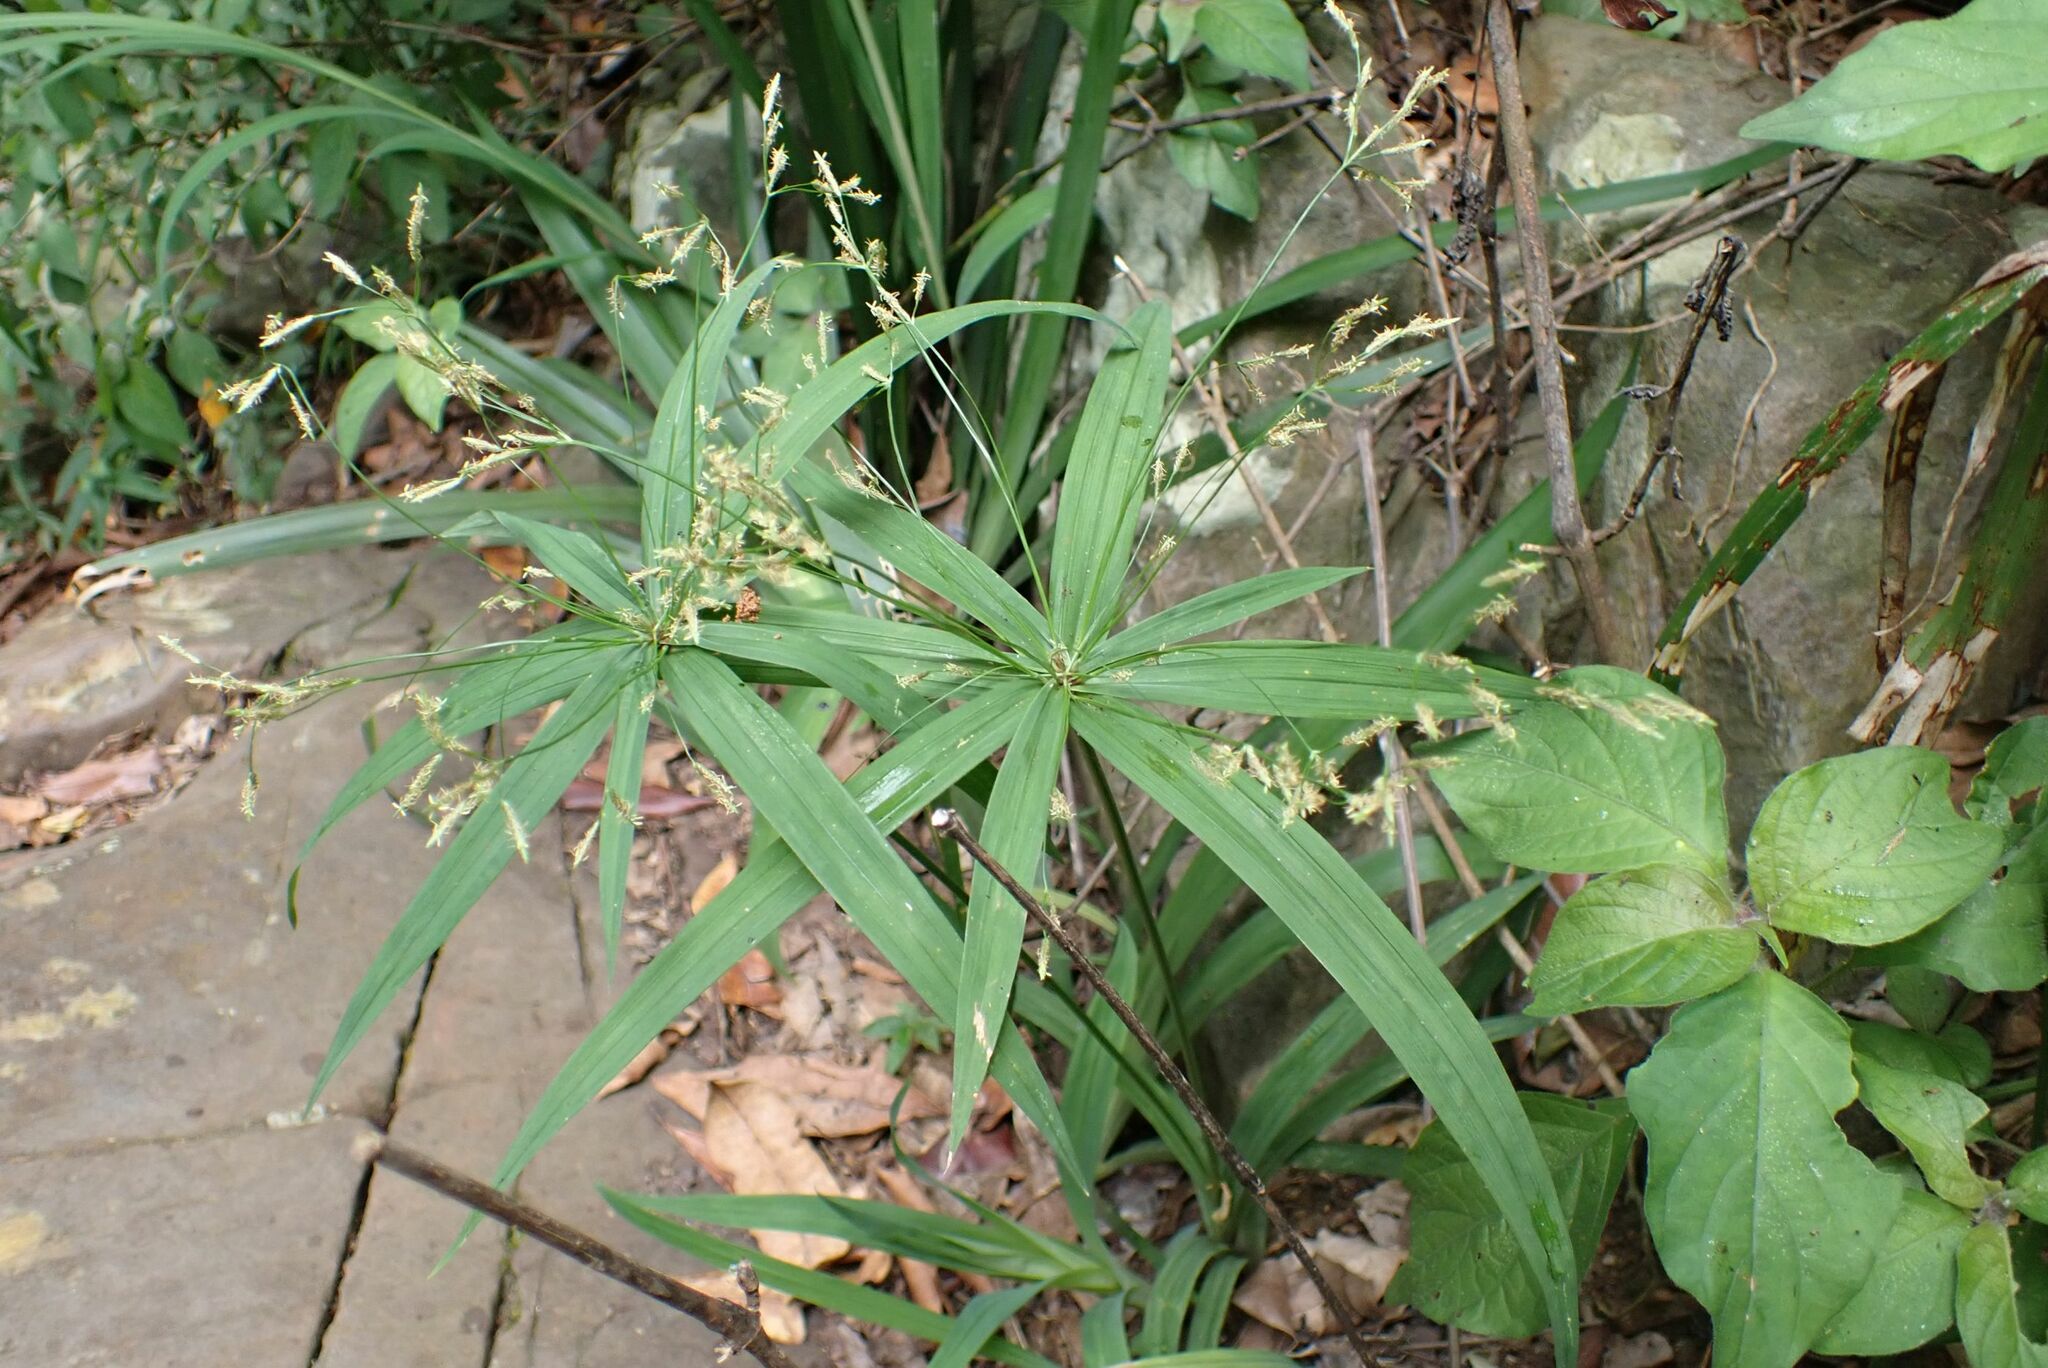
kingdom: Plantae
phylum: Tracheophyta
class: Liliopsida
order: Poales
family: Cyperaceae
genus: Cyperus
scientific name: Cyperus albostriatus
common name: Dwarf umbrella-grass
